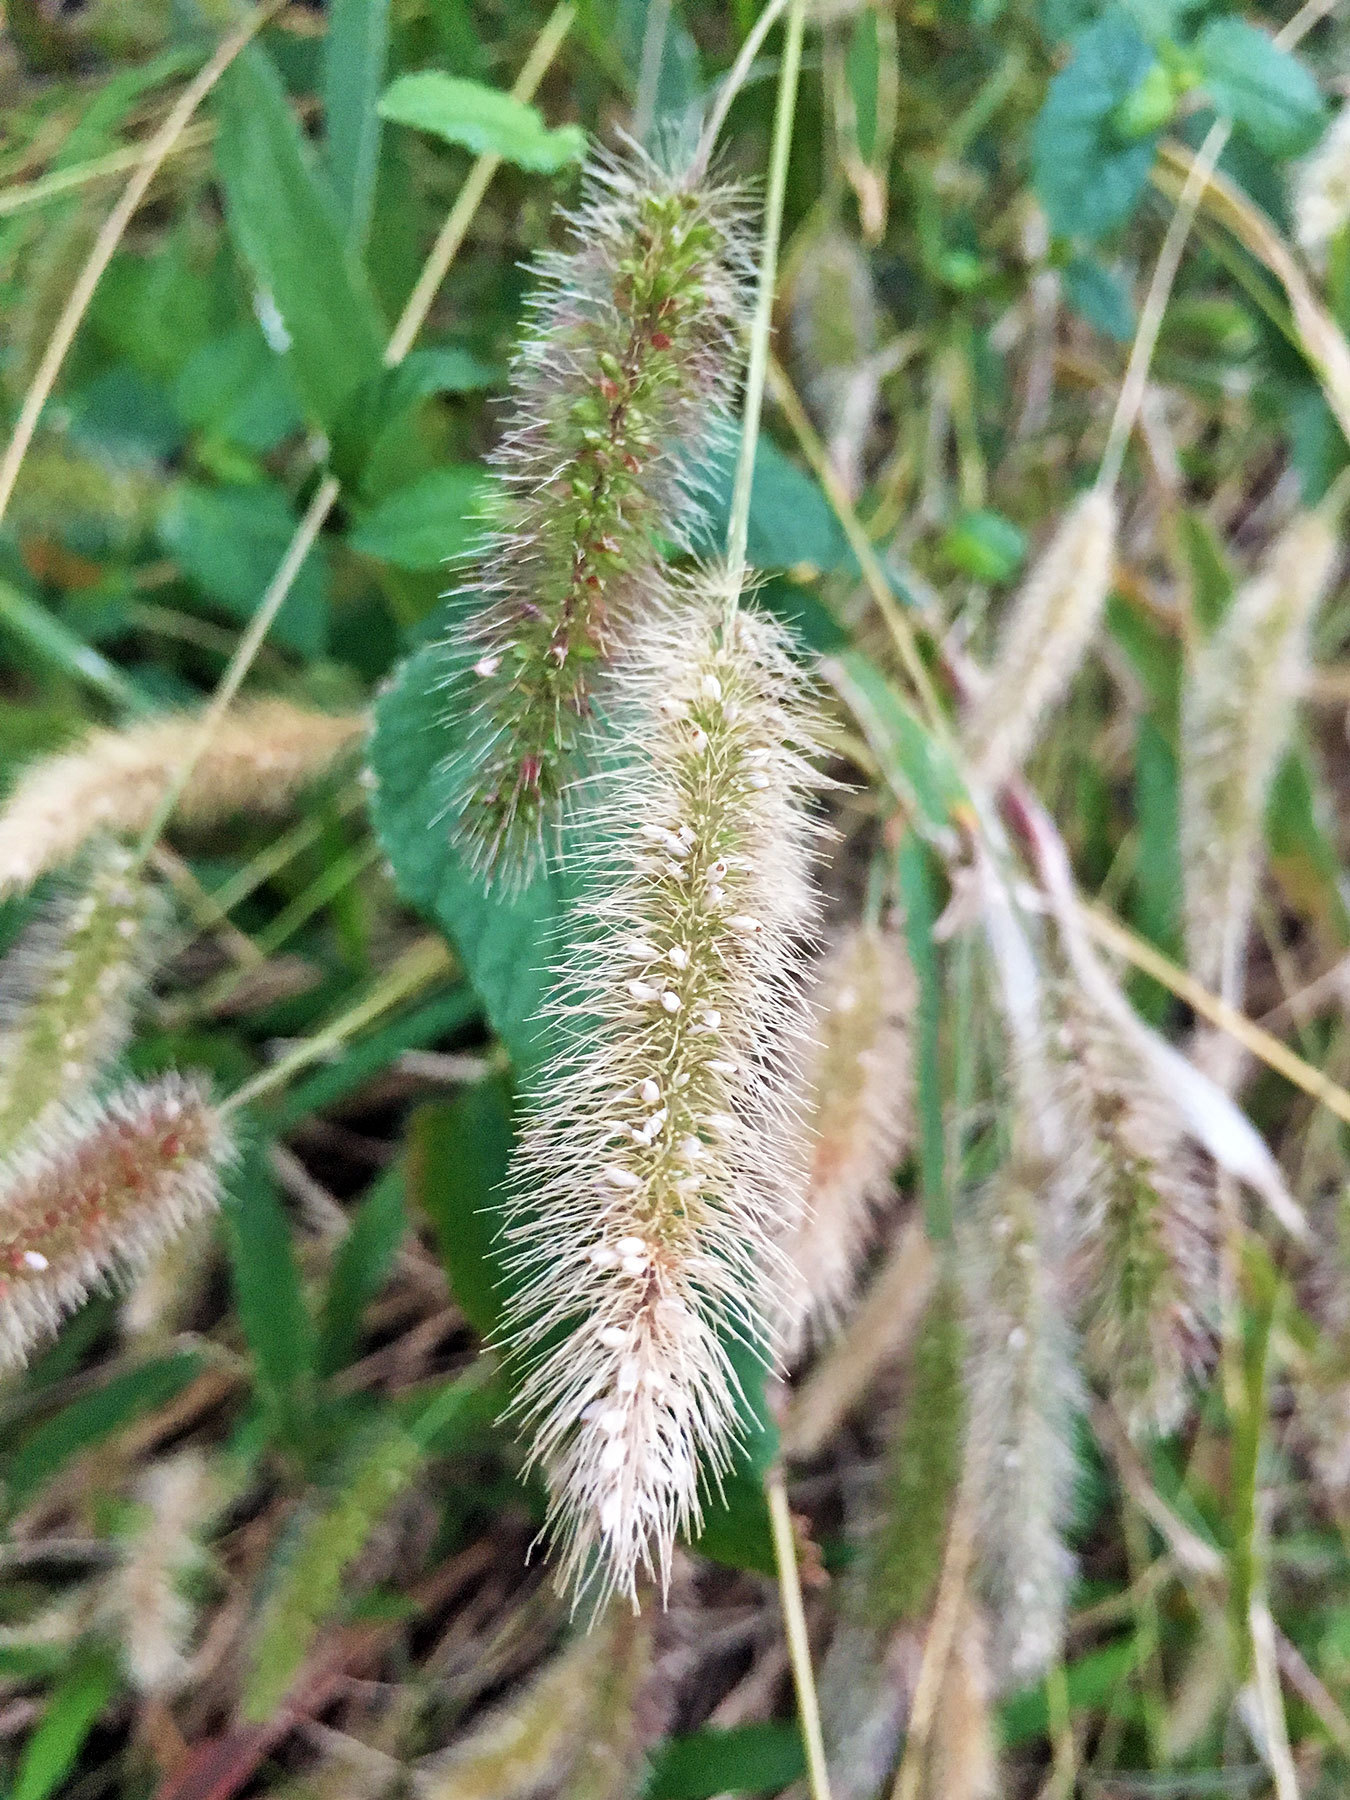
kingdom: Plantae
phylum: Tracheophyta
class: Liliopsida
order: Poales
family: Poaceae
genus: Setaria
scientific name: Setaria viridis
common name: Green bristlegrass
